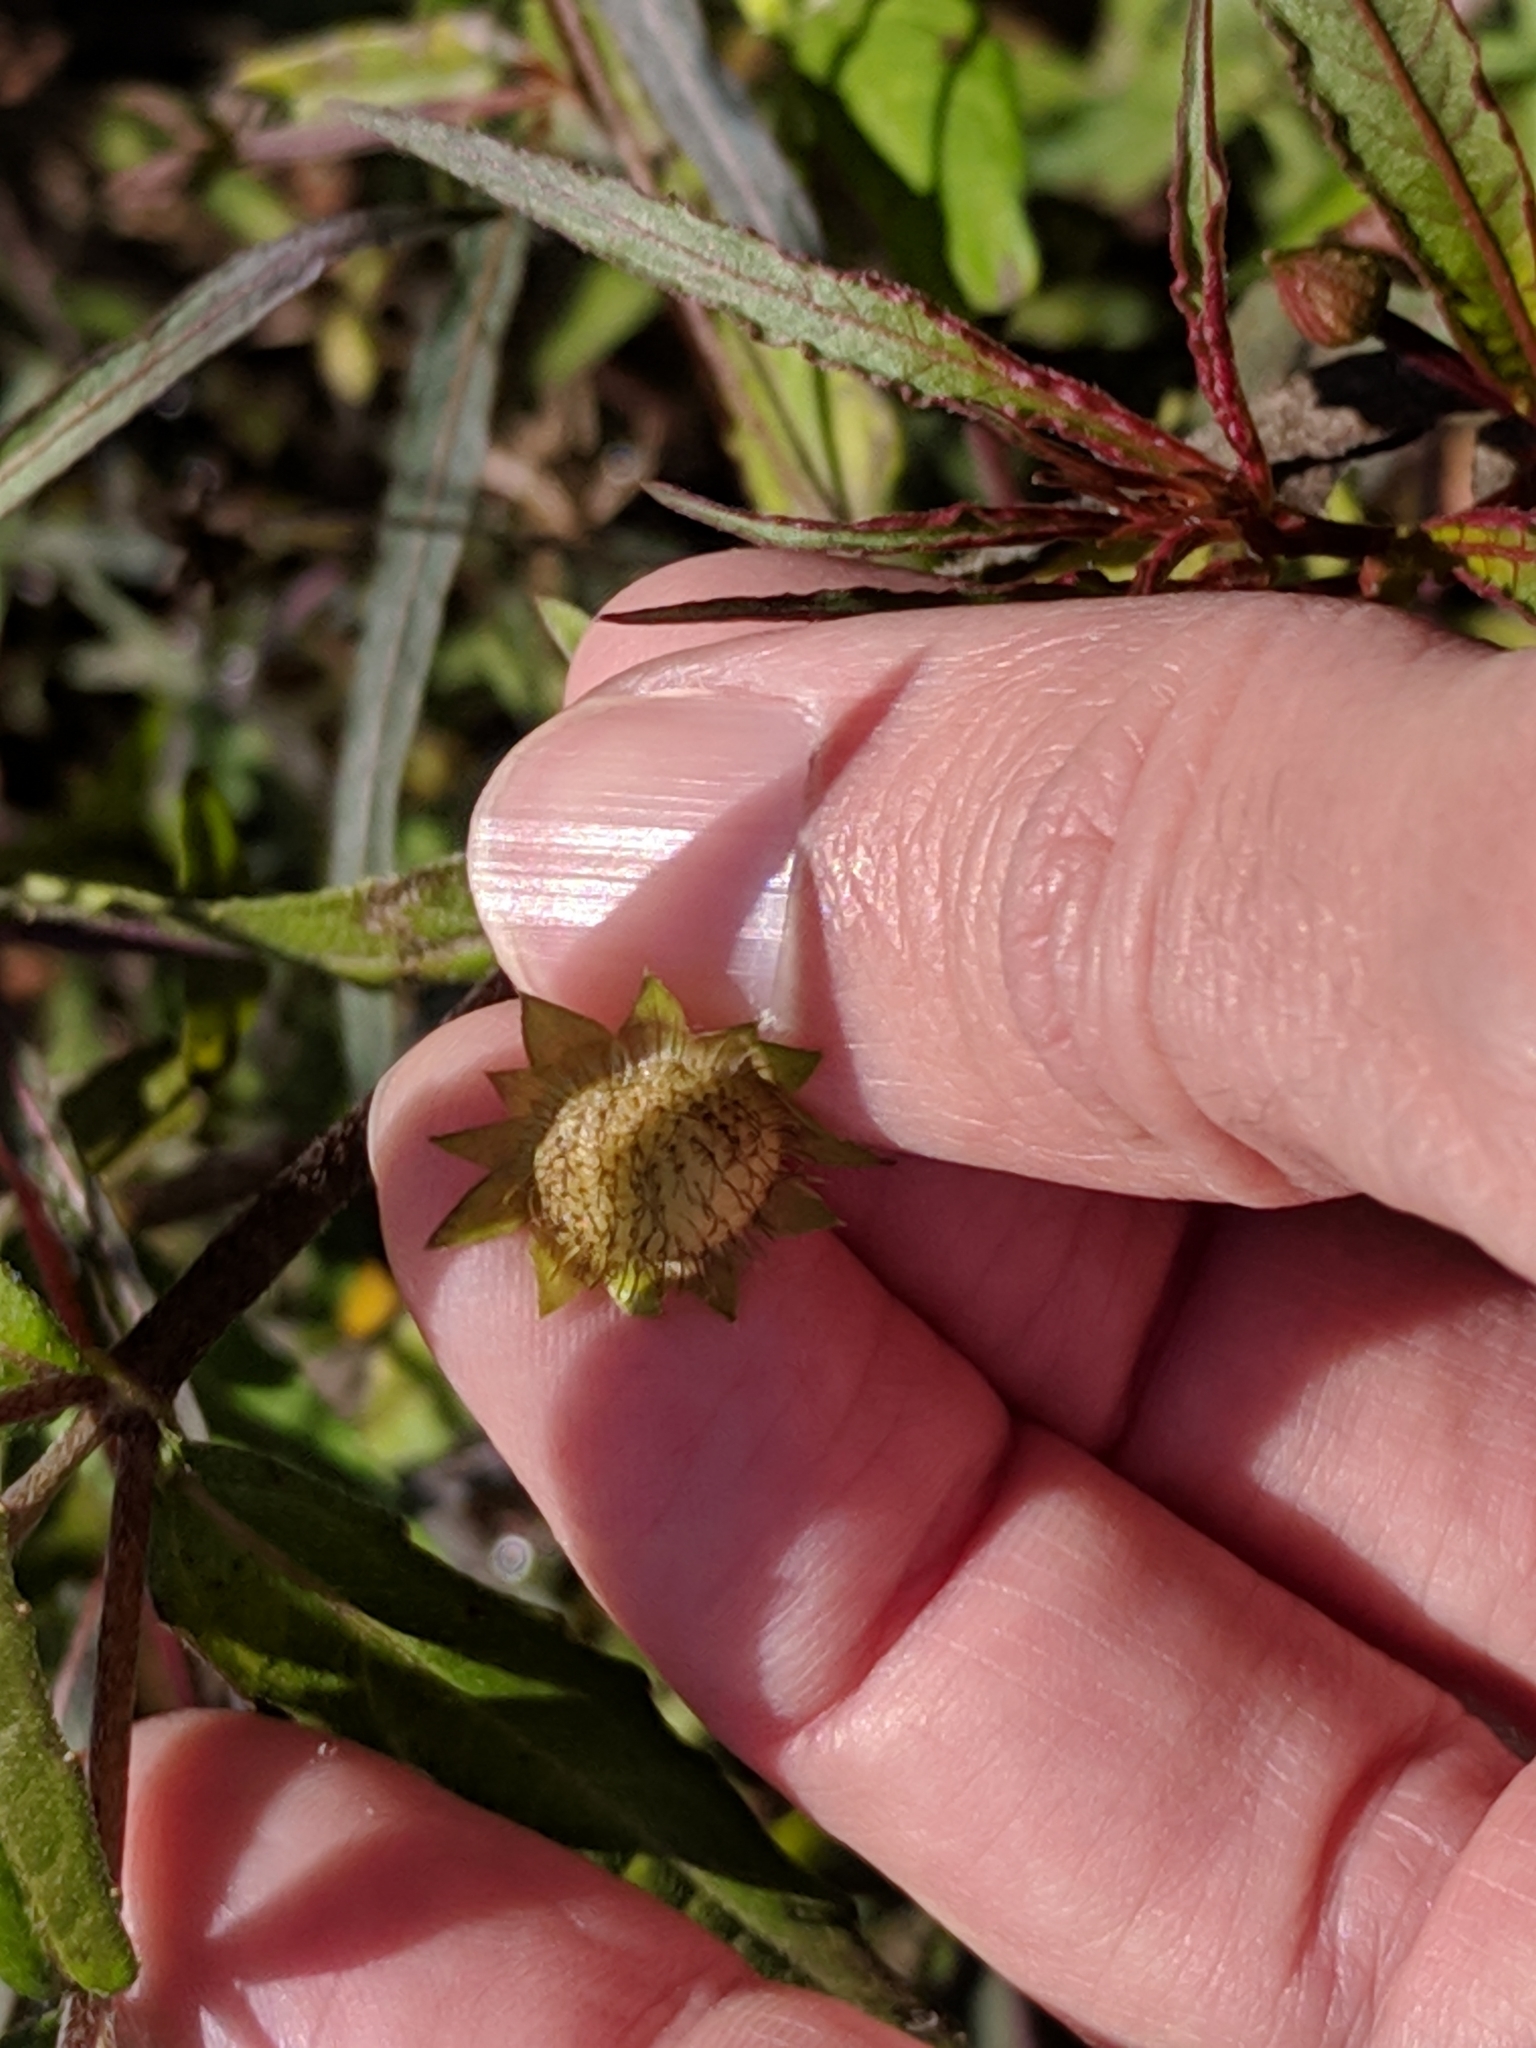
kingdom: Plantae
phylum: Tracheophyta
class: Magnoliopsida
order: Asterales
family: Asteraceae
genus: Eclipta
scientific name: Eclipta prostrata
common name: False daisy
